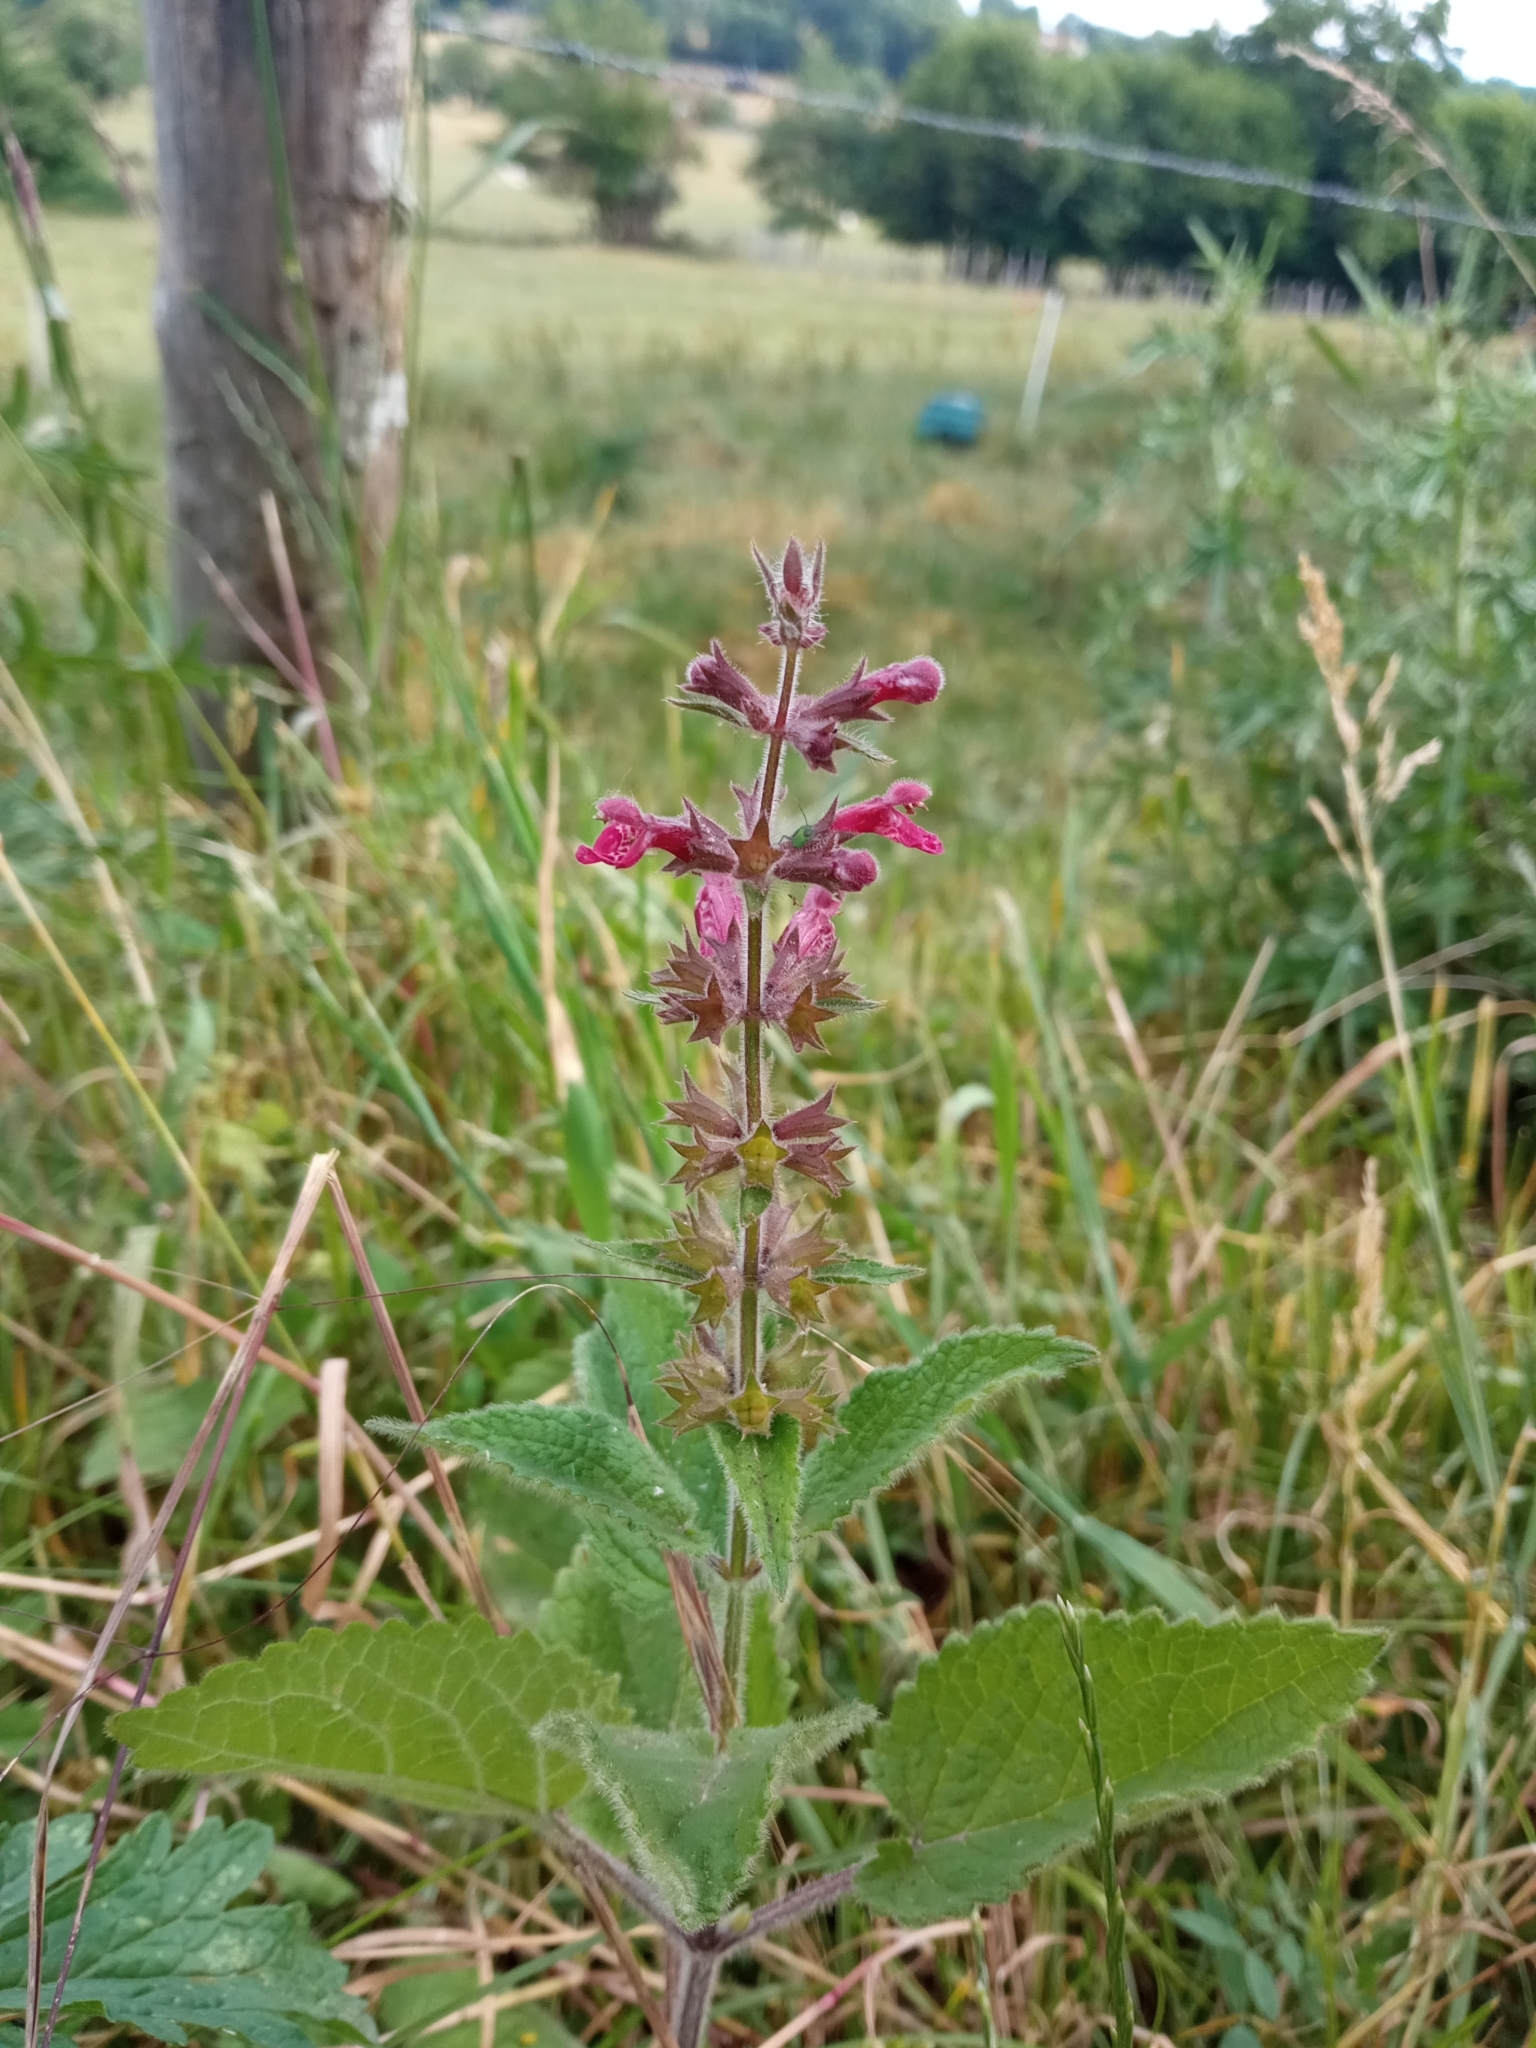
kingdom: Plantae
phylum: Tracheophyta
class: Magnoliopsida
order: Lamiales
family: Lamiaceae
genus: Stachys
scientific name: Stachys sylvatica
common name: Hedge woundwort
